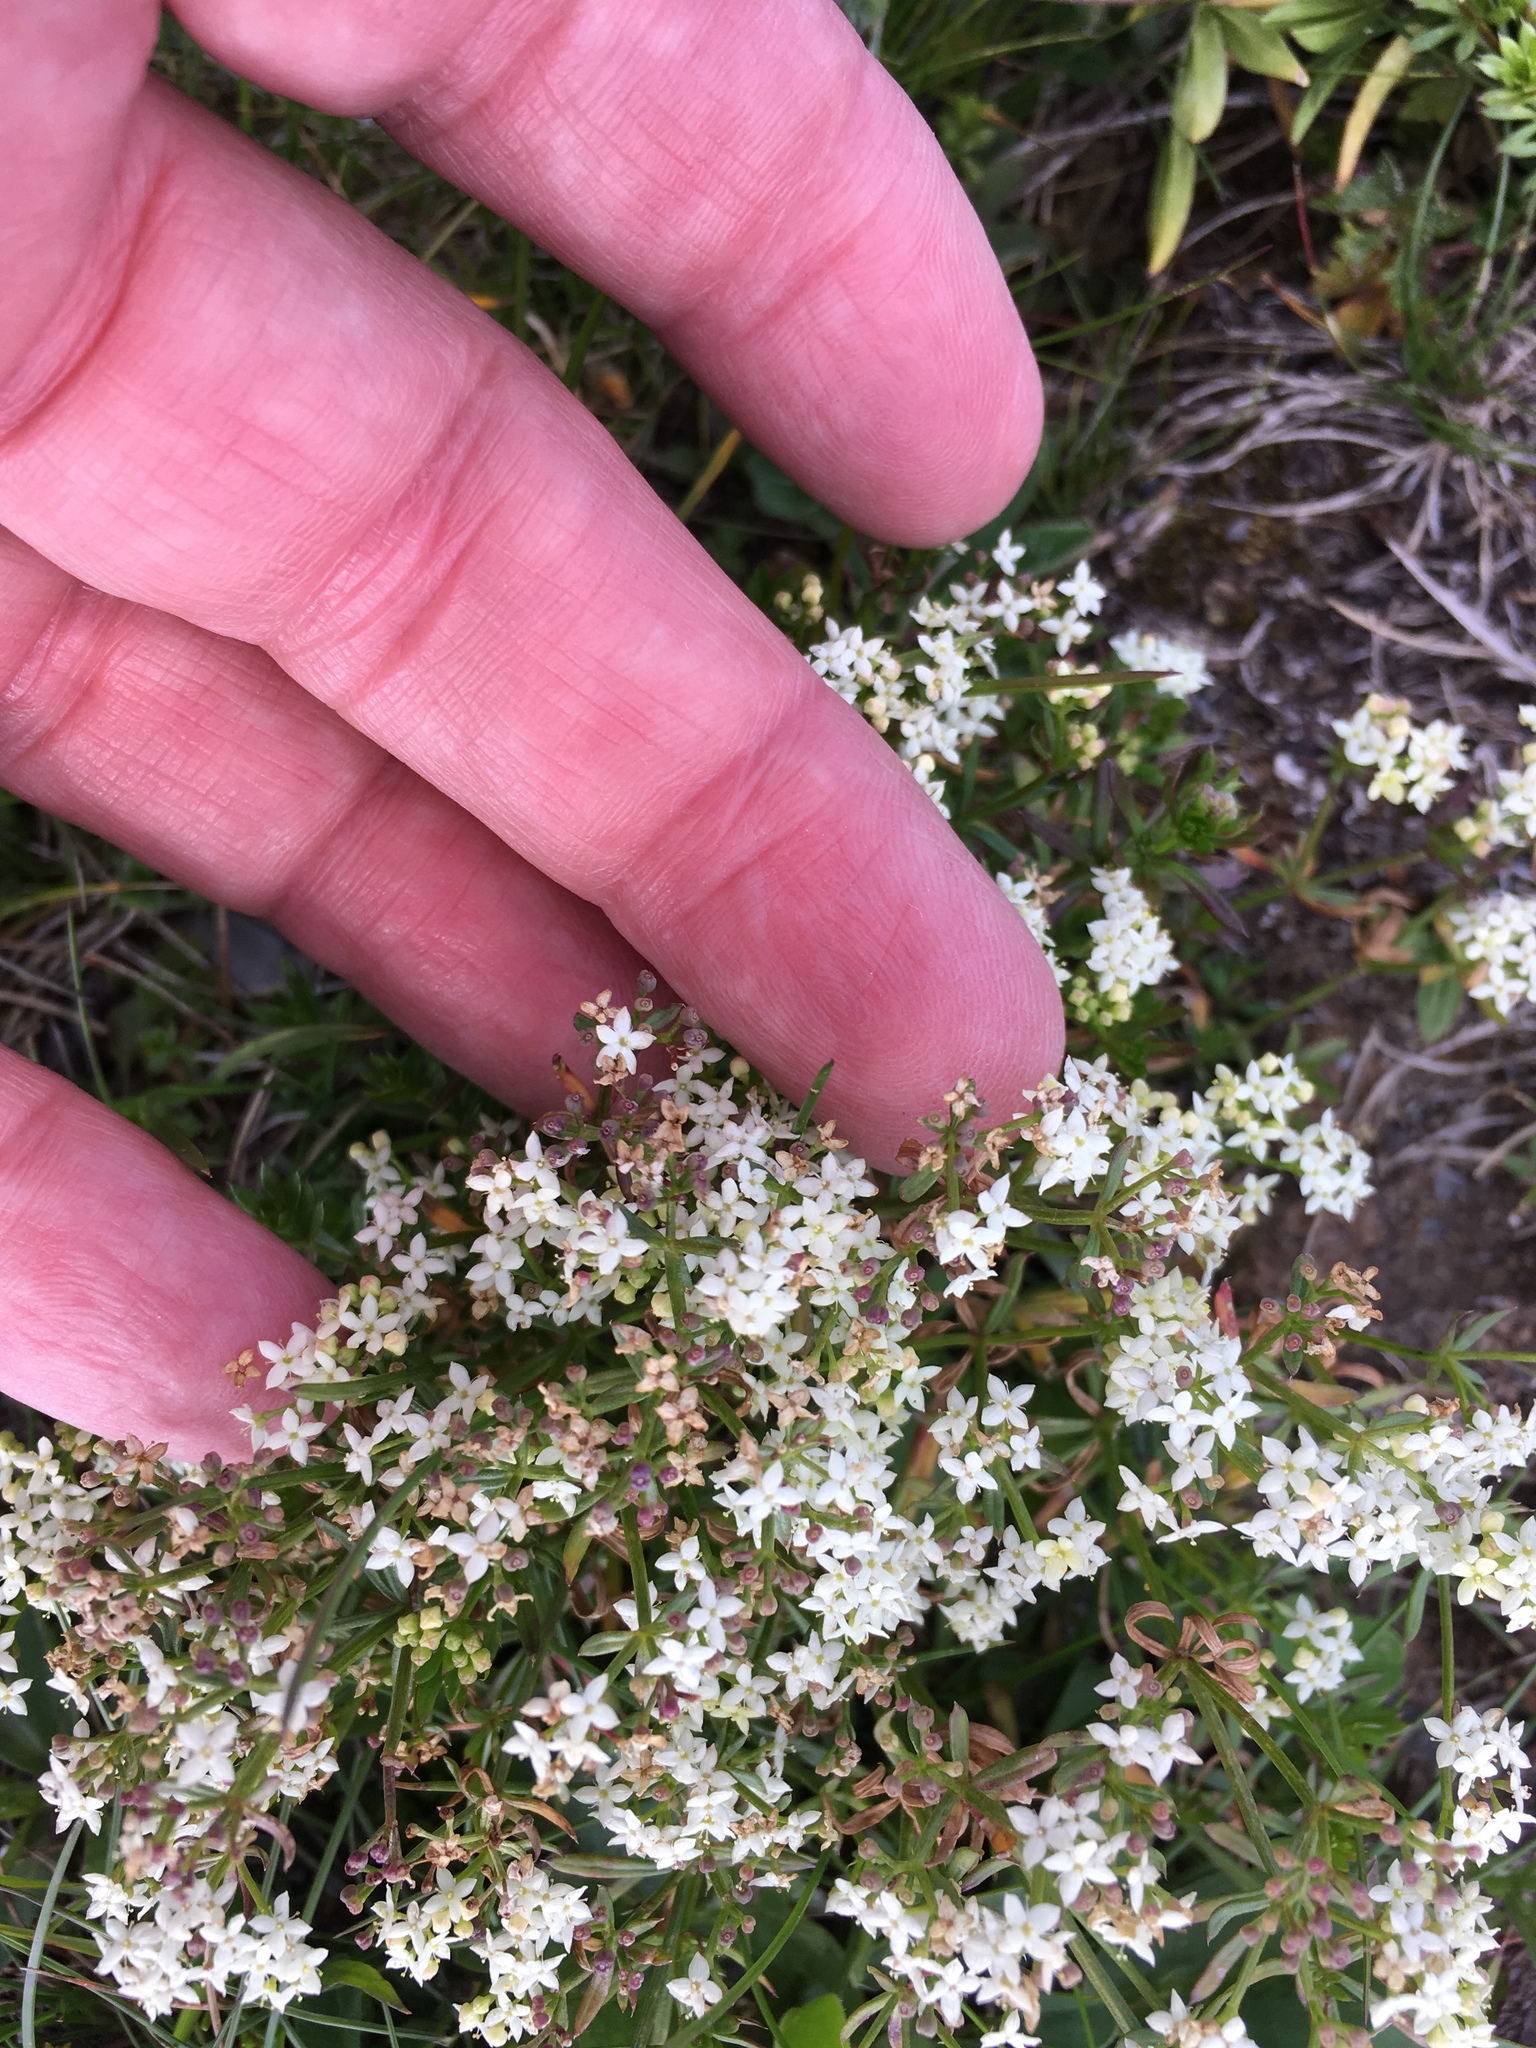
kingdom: Plantae
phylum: Tracheophyta
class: Magnoliopsida
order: Gentianales
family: Rubiaceae
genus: Galium
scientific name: Galium anisophyllon
